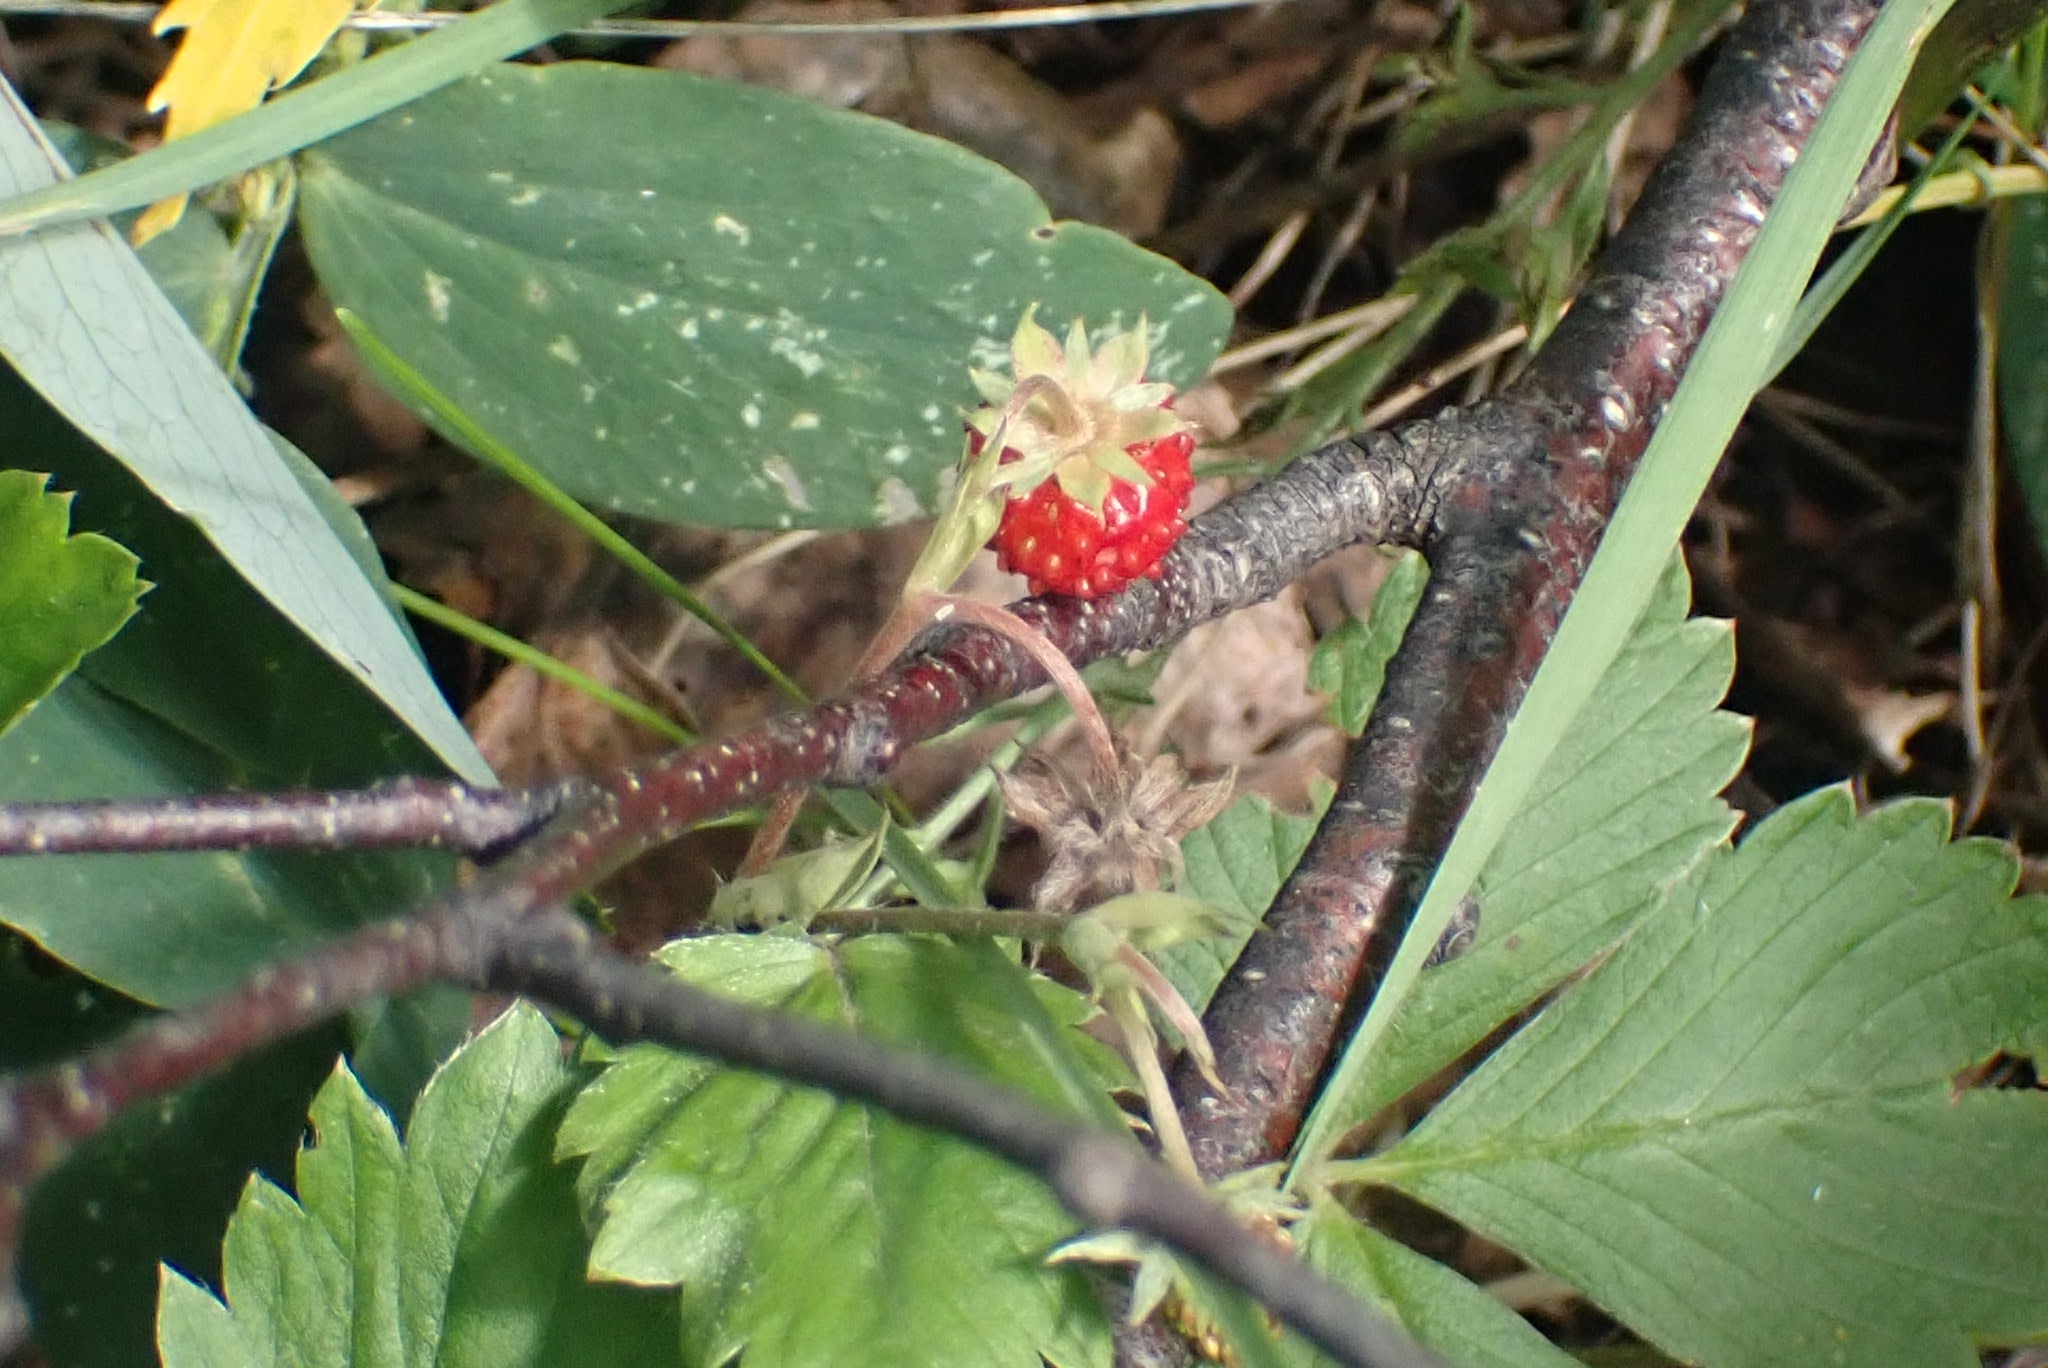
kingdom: Plantae
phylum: Tracheophyta
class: Magnoliopsida
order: Rosales
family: Rosaceae
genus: Fragaria
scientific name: Fragaria vesca
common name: Wild strawberry
